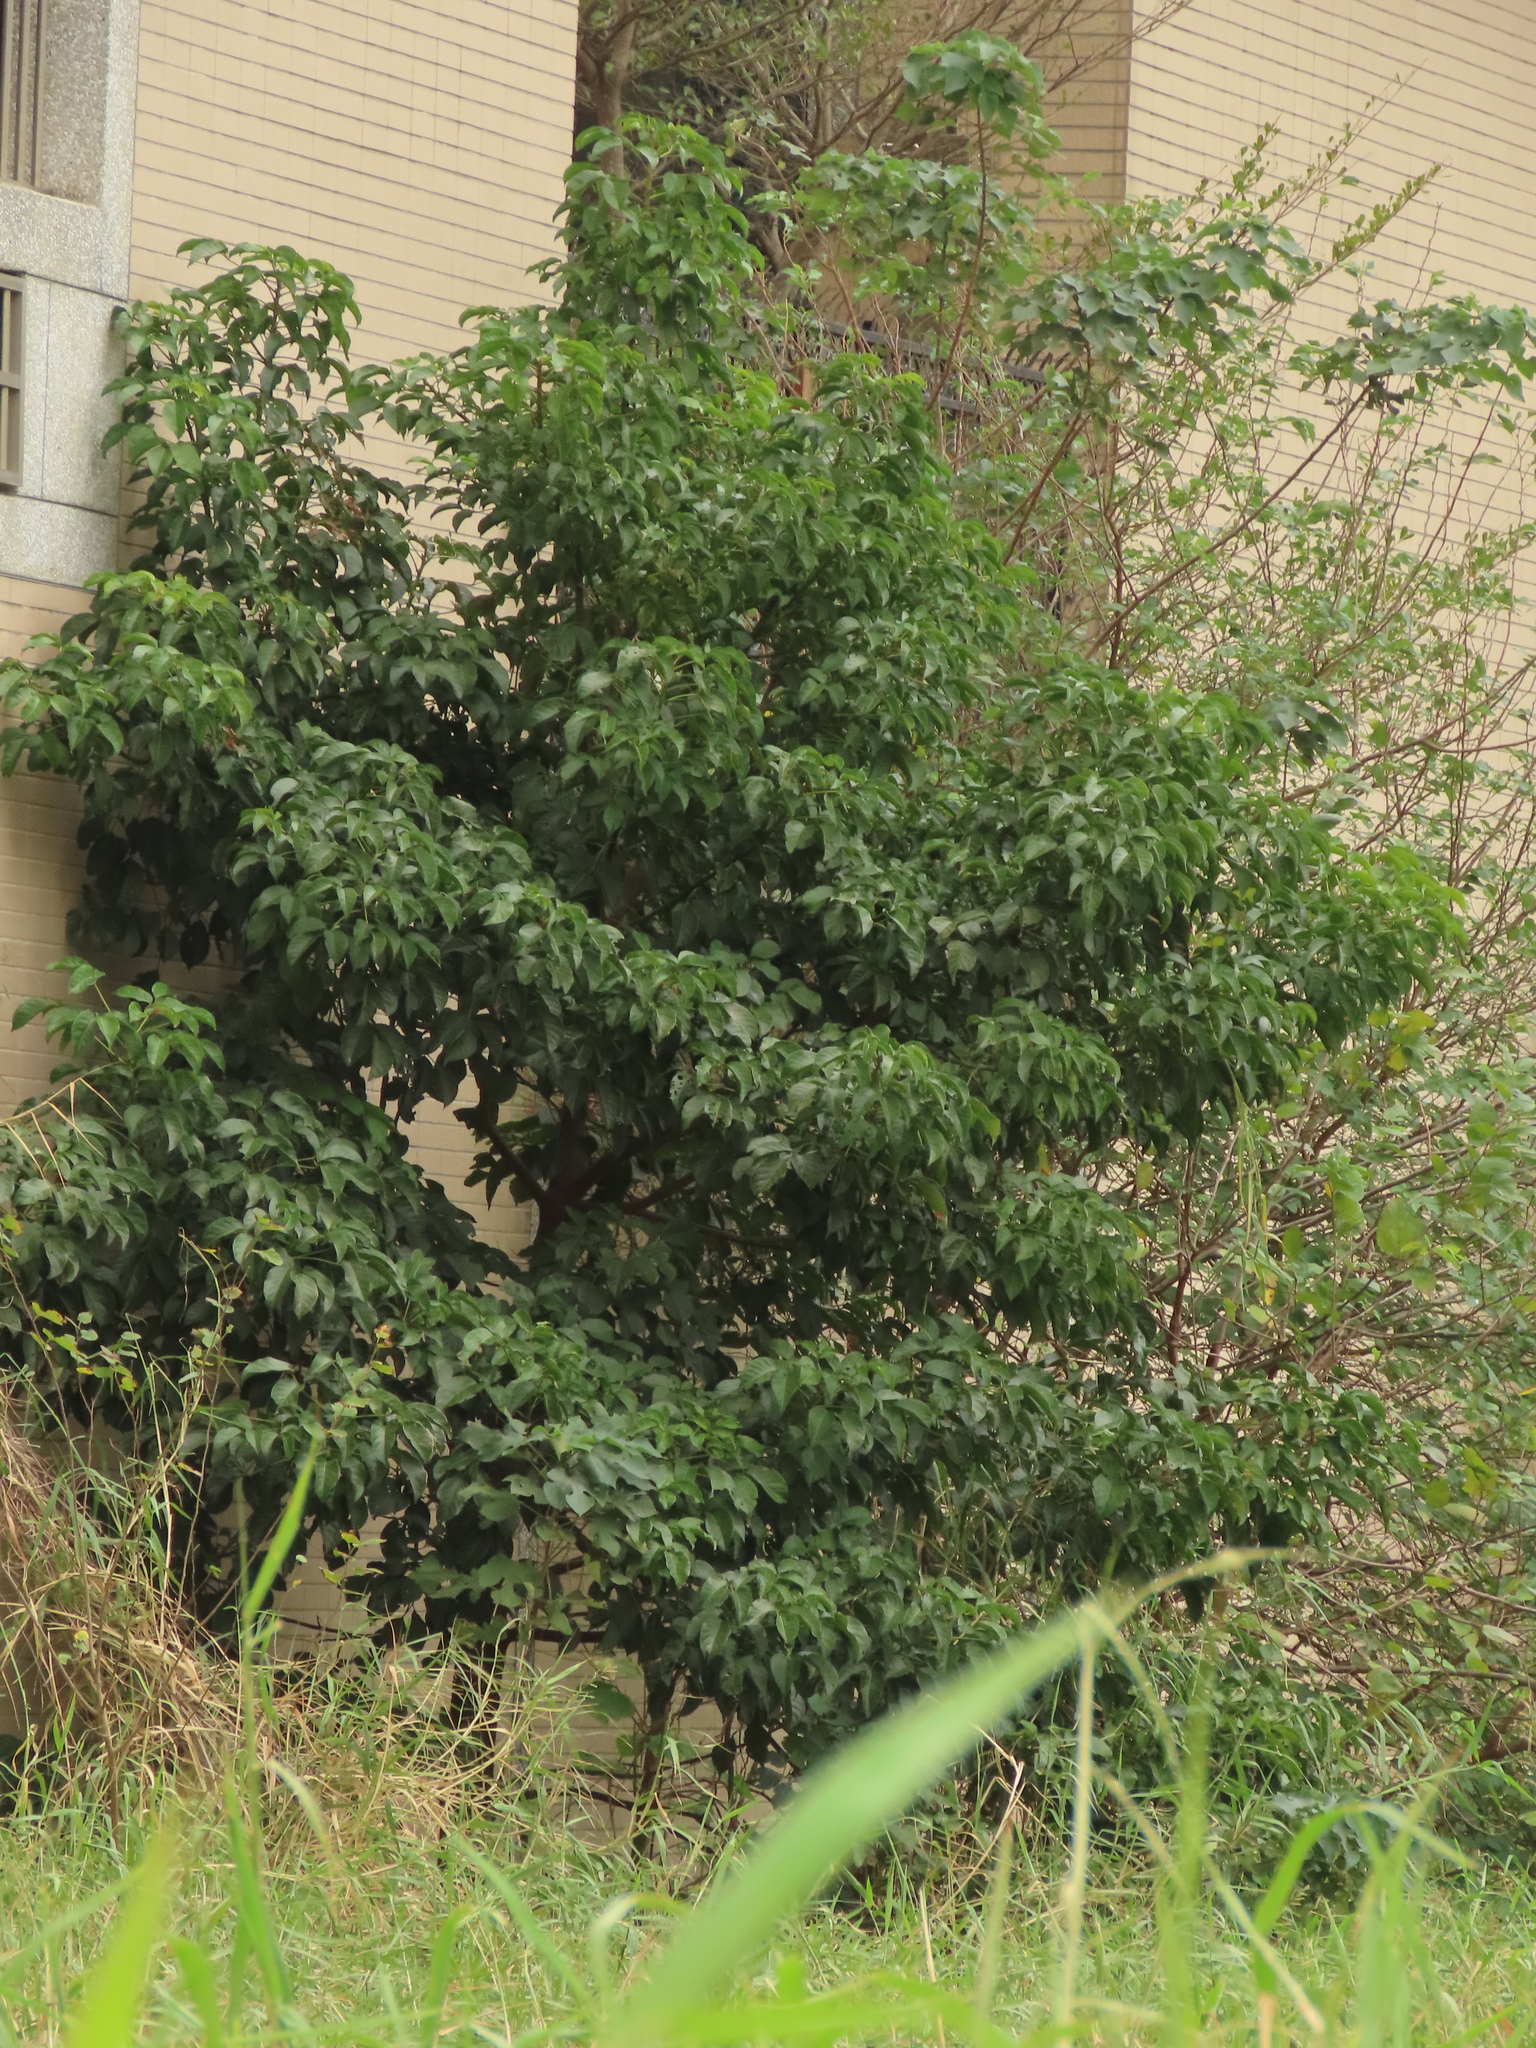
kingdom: Plantae
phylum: Tracheophyta
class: Magnoliopsida
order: Malpighiales
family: Phyllanthaceae
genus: Bischofia
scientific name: Bischofia javanica
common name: Javanese bishopwood
